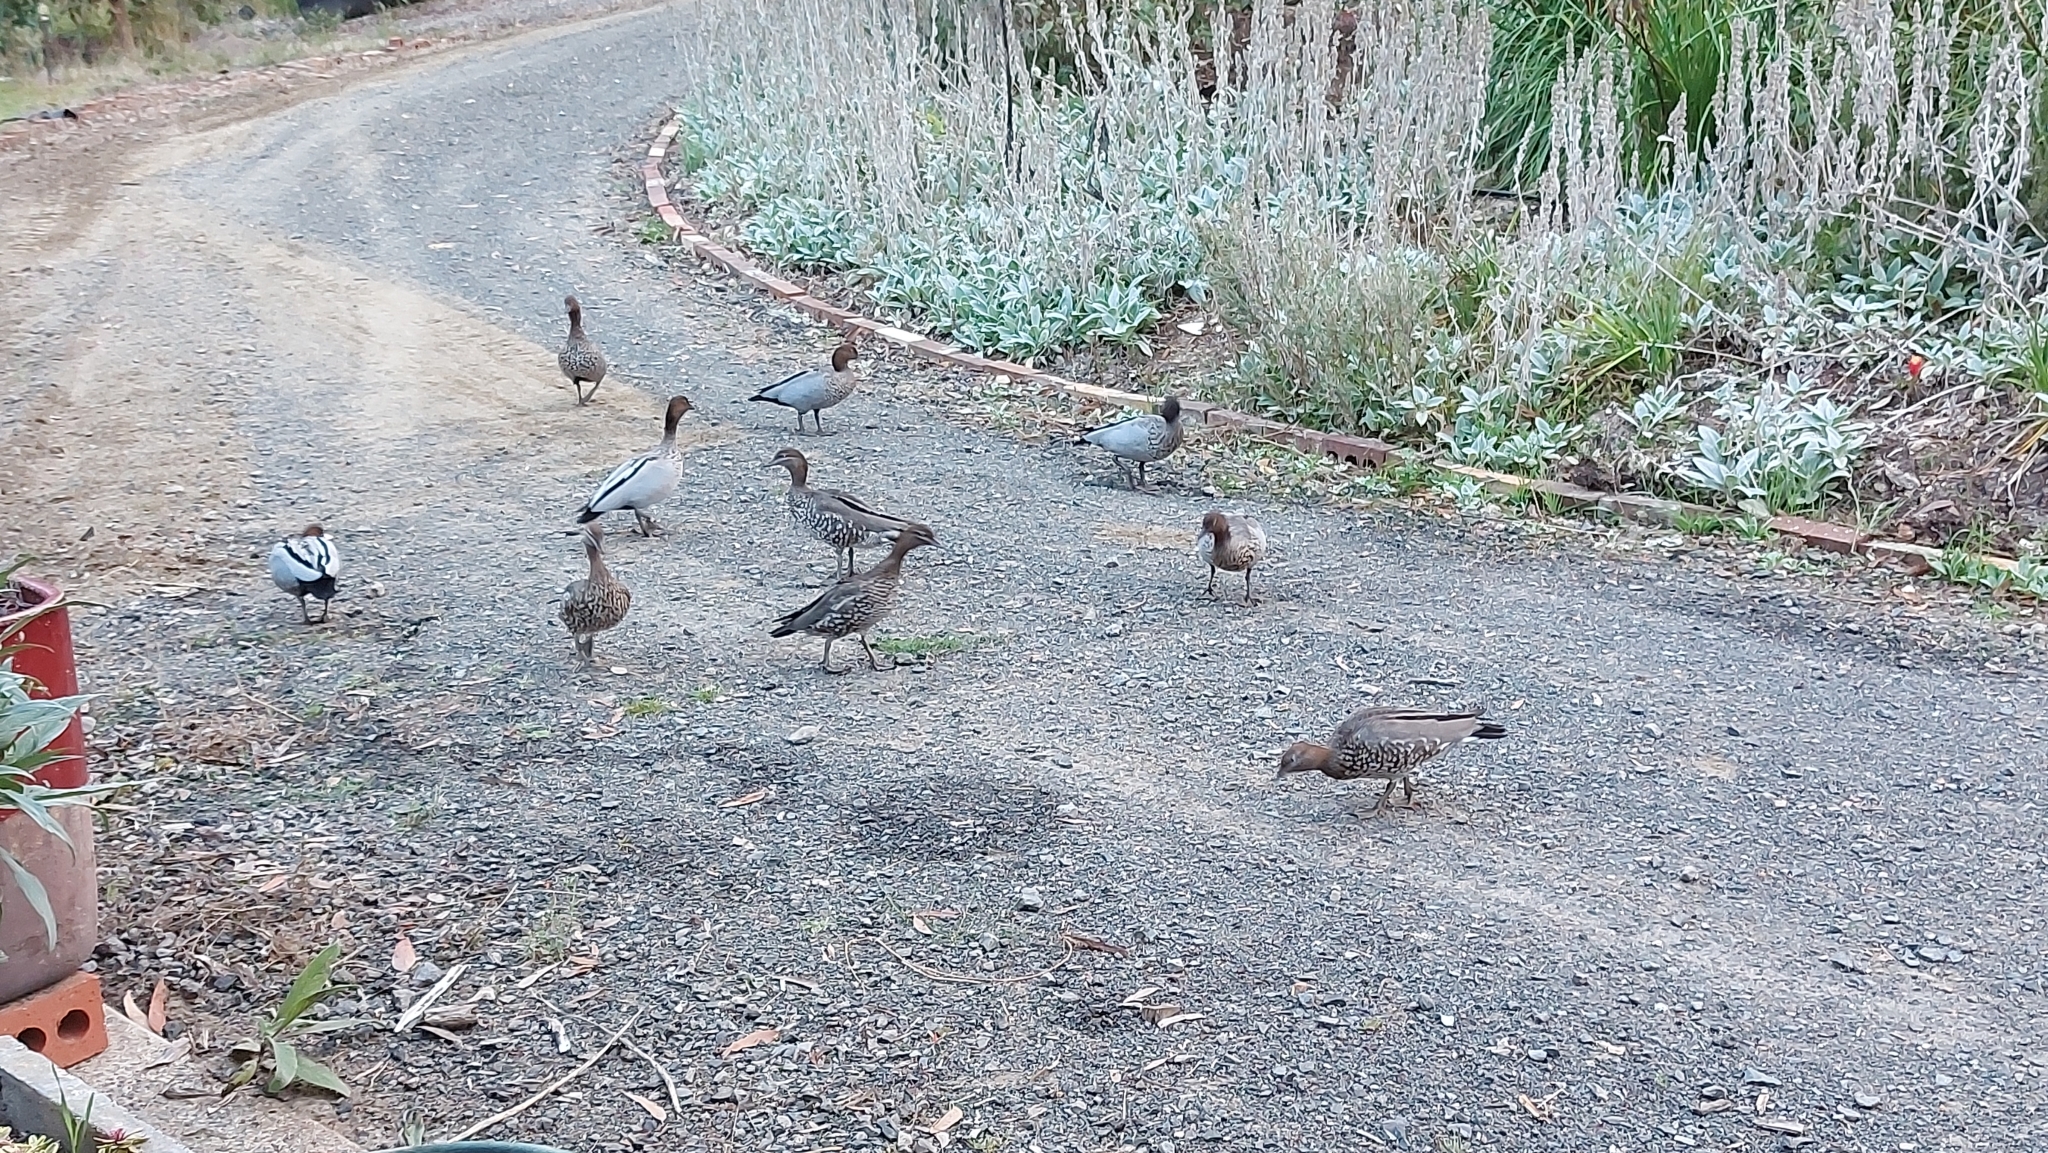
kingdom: Animalia
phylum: Chordata
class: Aves
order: Anseriformes
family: Anatidae
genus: Chenonetta
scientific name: Chenonetta jubata
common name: Maned duck
